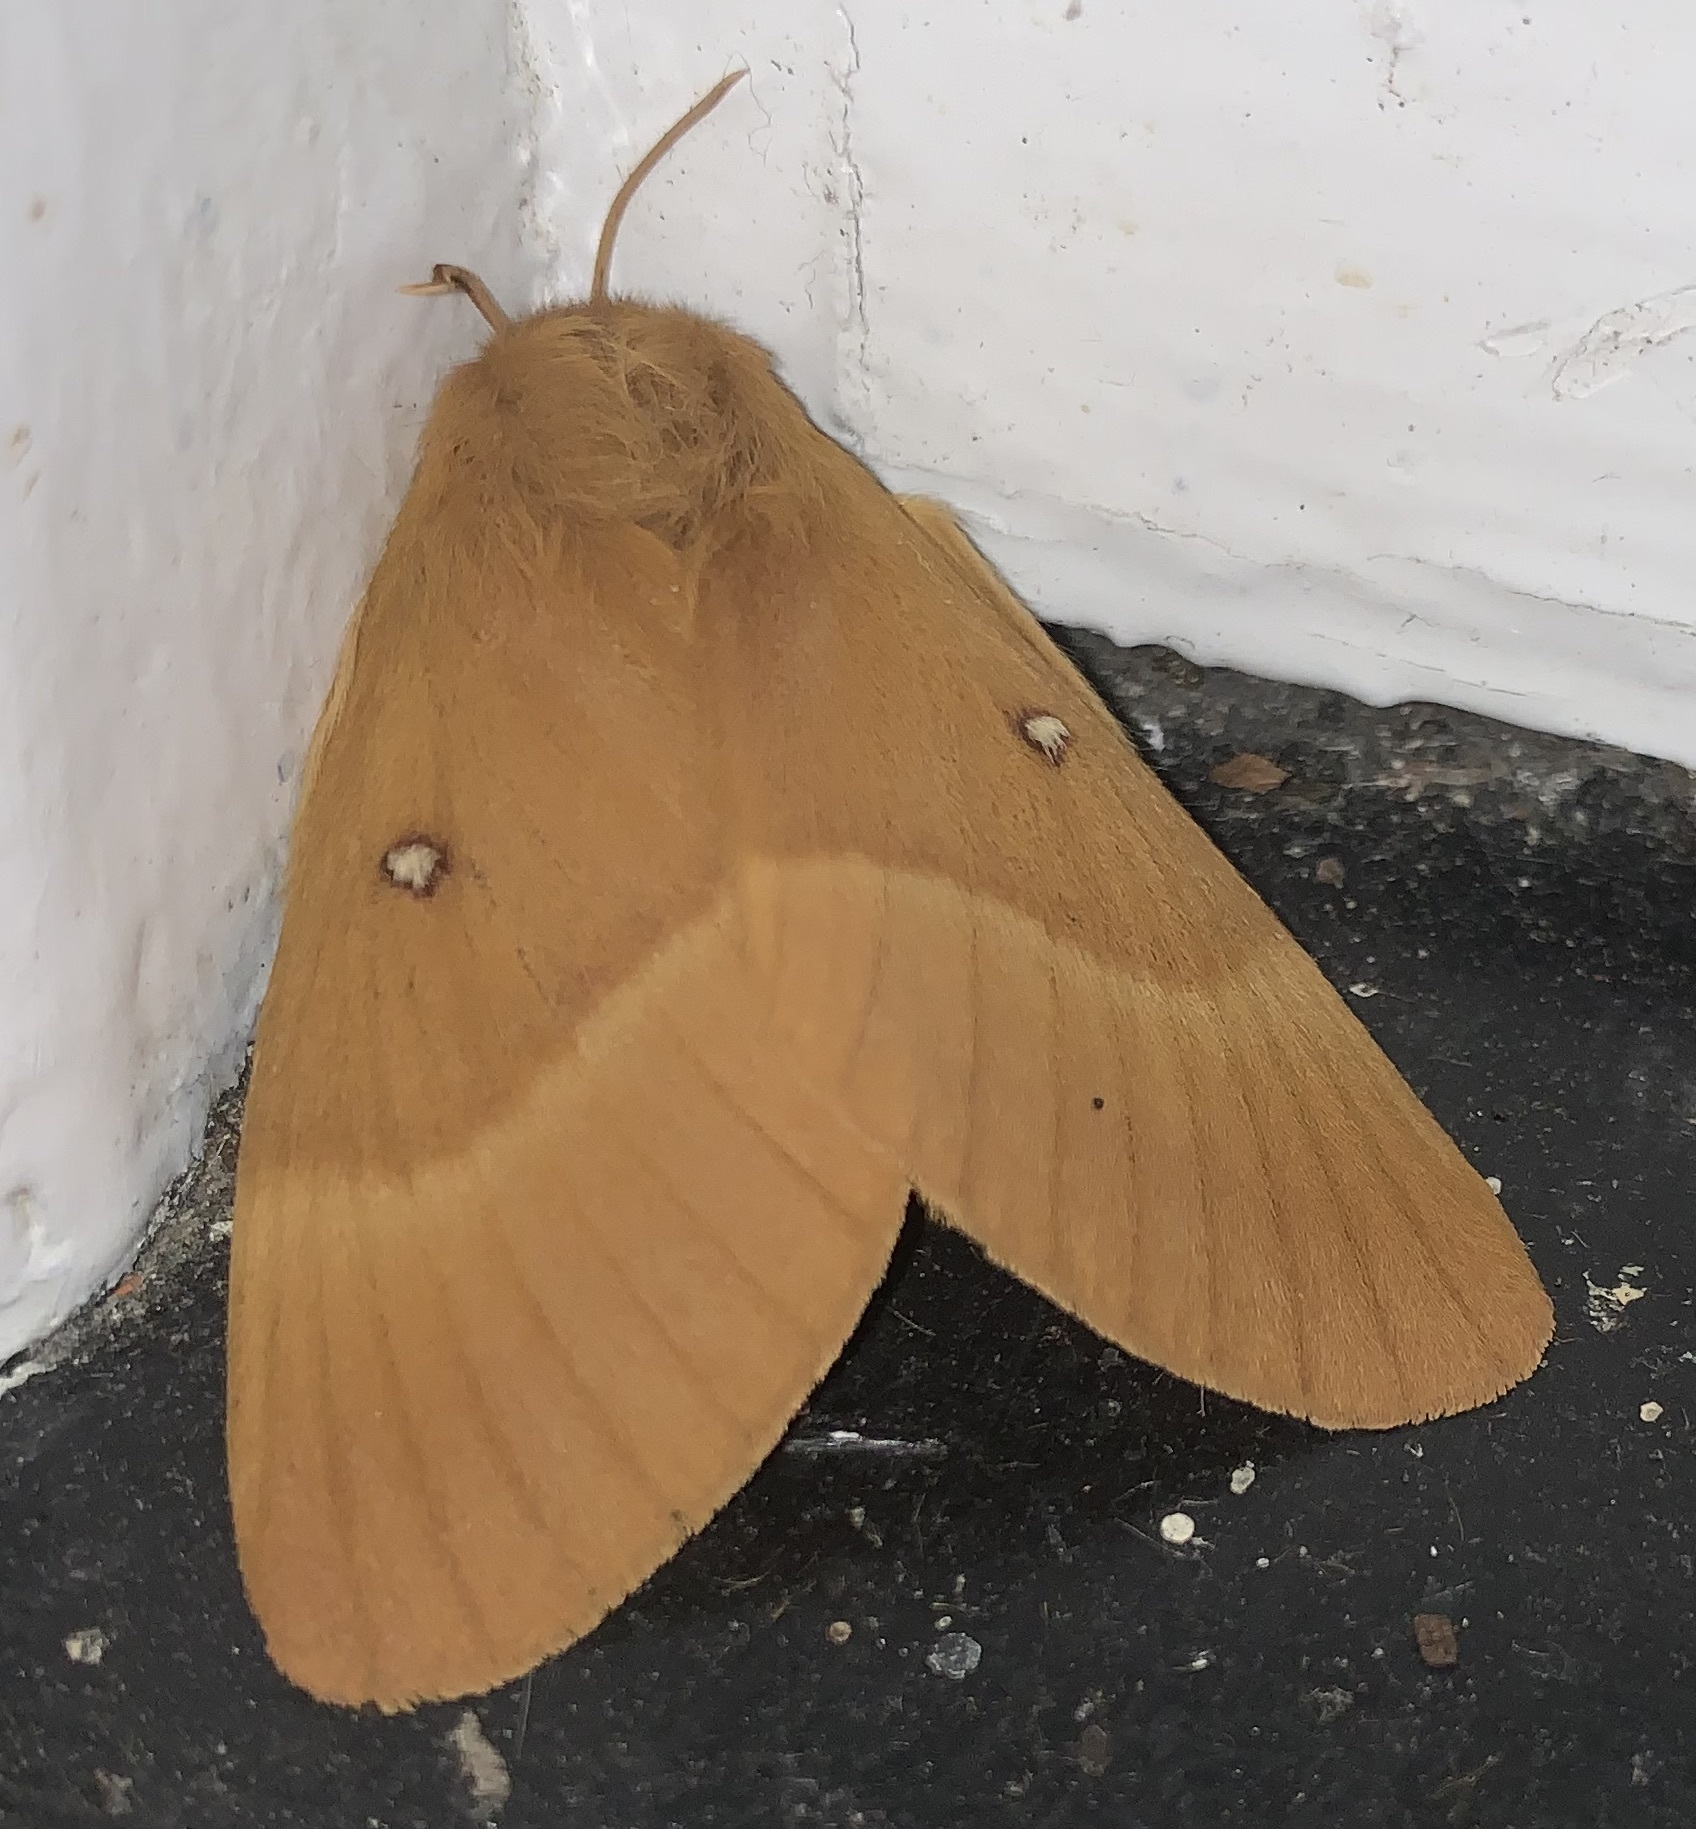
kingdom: Animalia
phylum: Arthropoda
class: Insecta
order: Lepidoptera
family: Lasiocampidae
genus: Lasiocampa
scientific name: Lasiocampa quercus
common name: Oak eggar
